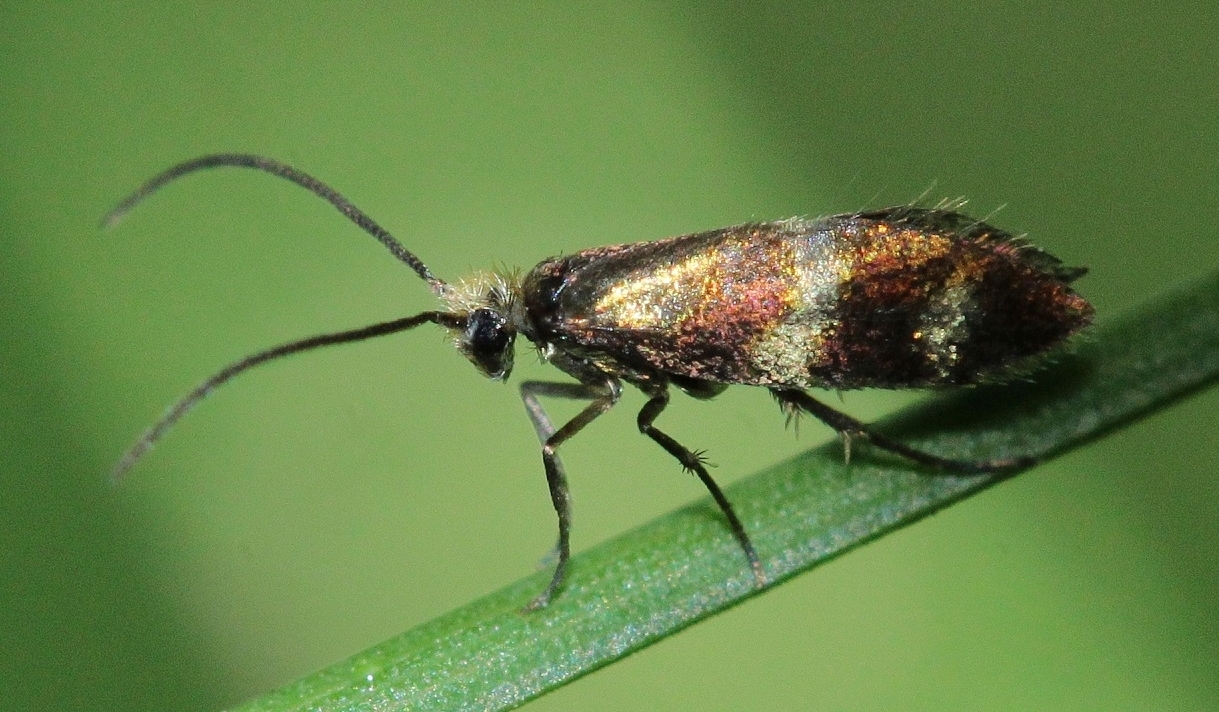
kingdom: Animalia
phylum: Arthropoda
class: Insecta
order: Lepidoptera
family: Micropterigidae
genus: Micropterix
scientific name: Micropterix maschukella
